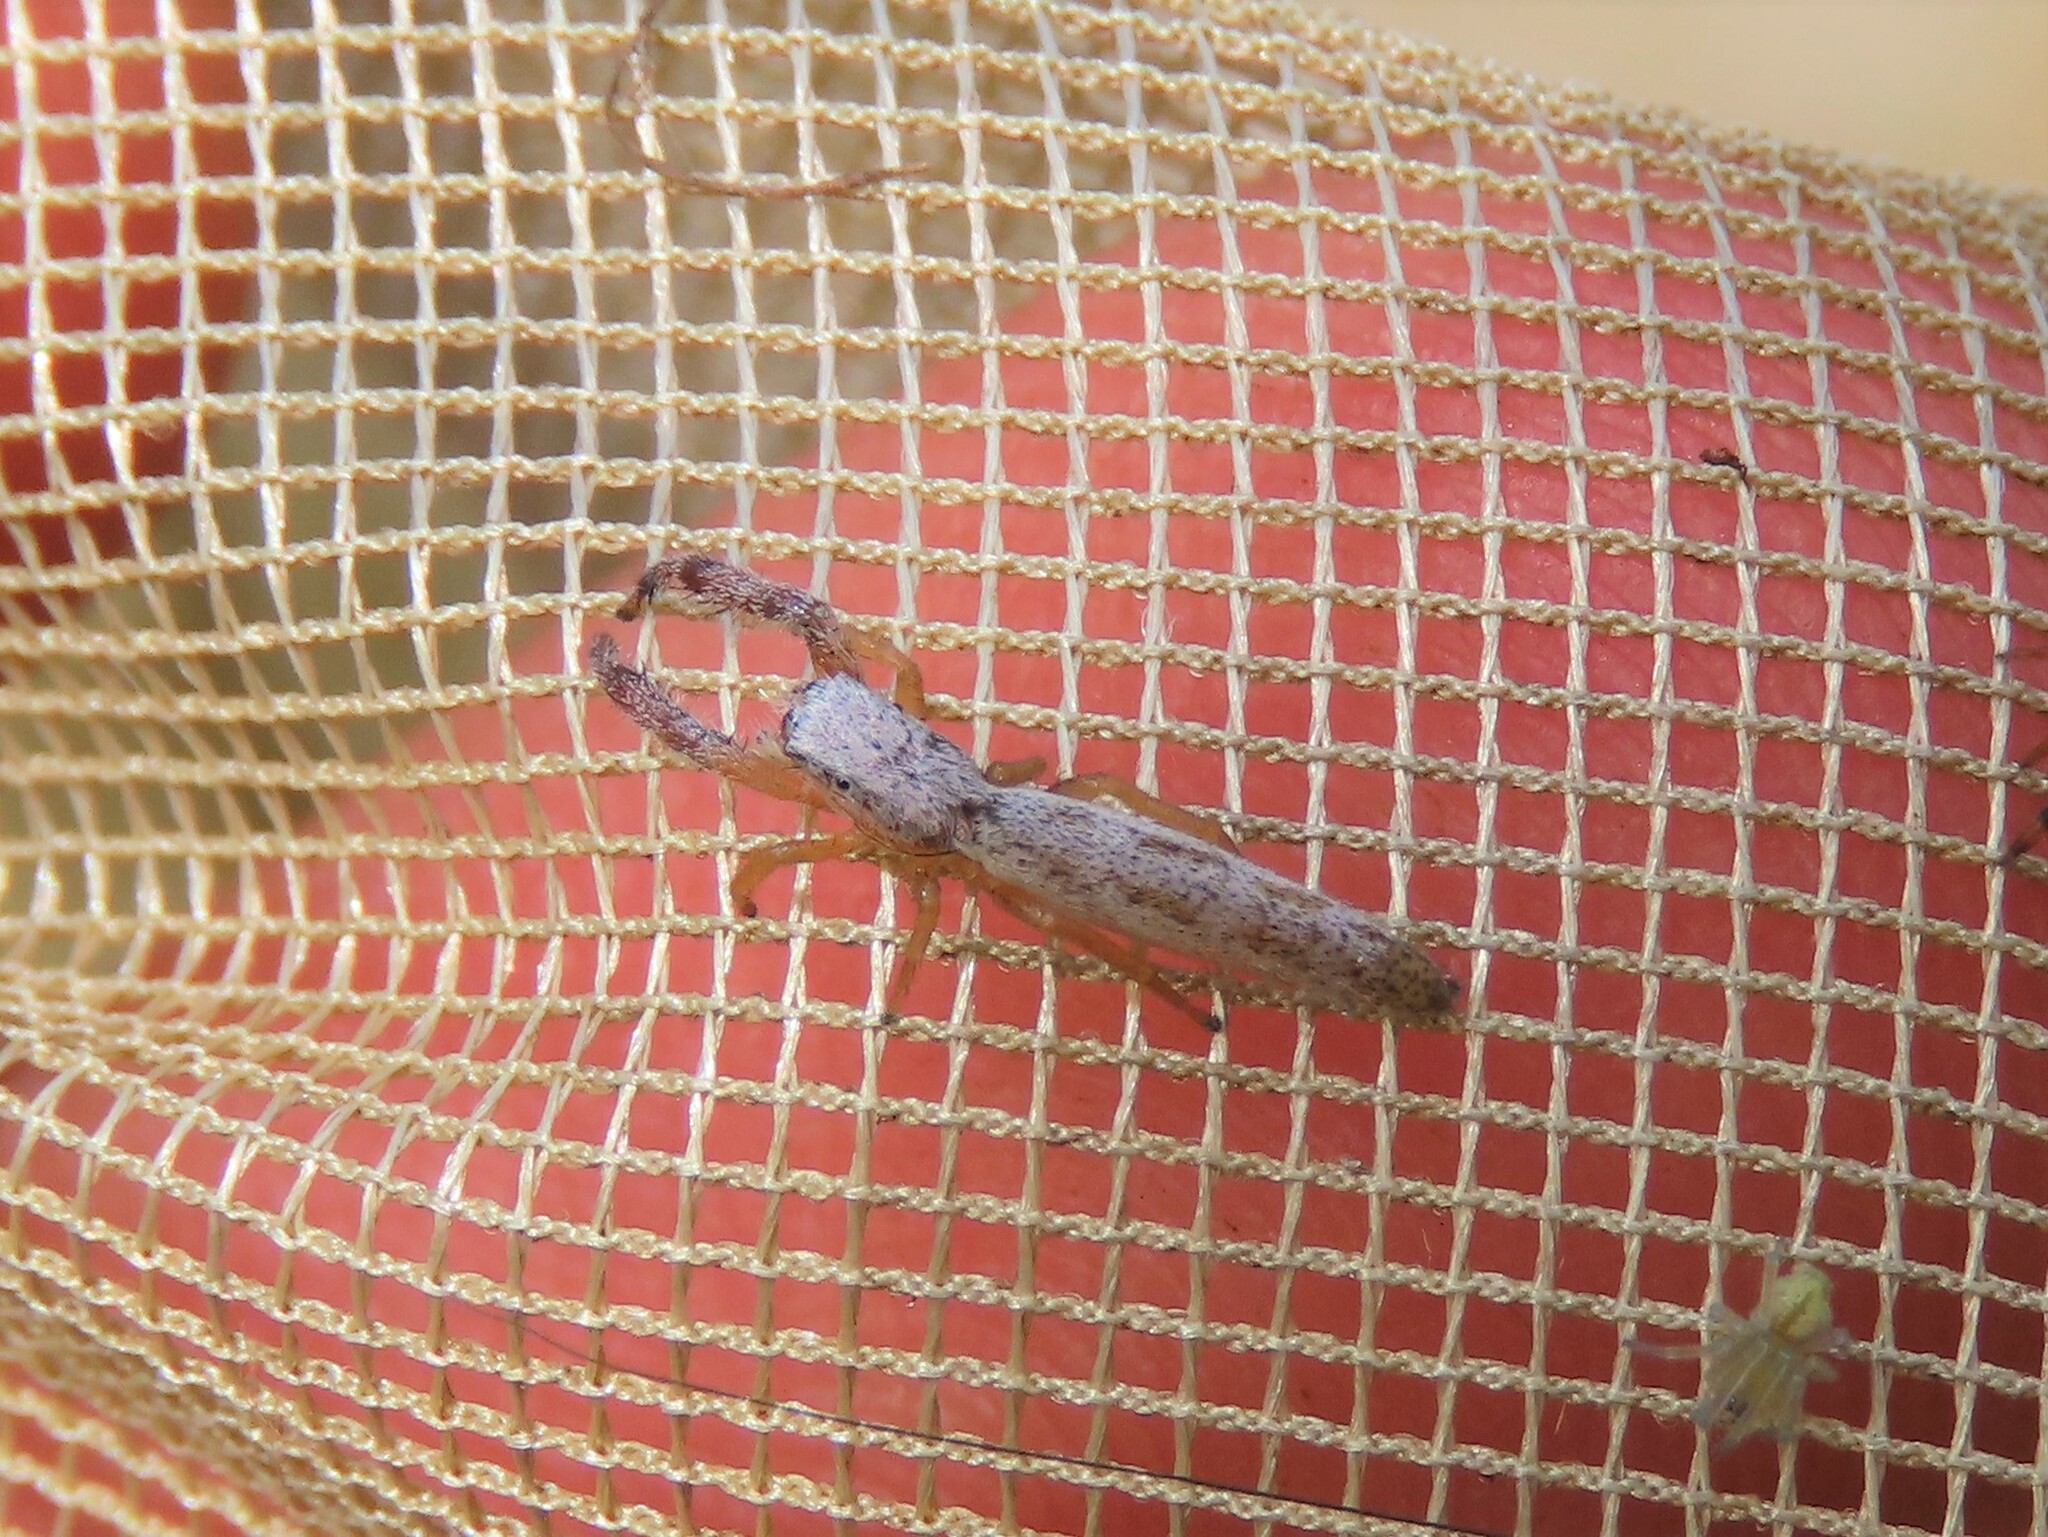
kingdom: Animalia
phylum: Arthropoda
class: Arachnida
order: Araneae
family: Salticidae
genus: Marpissa
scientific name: Marpissa pikei
